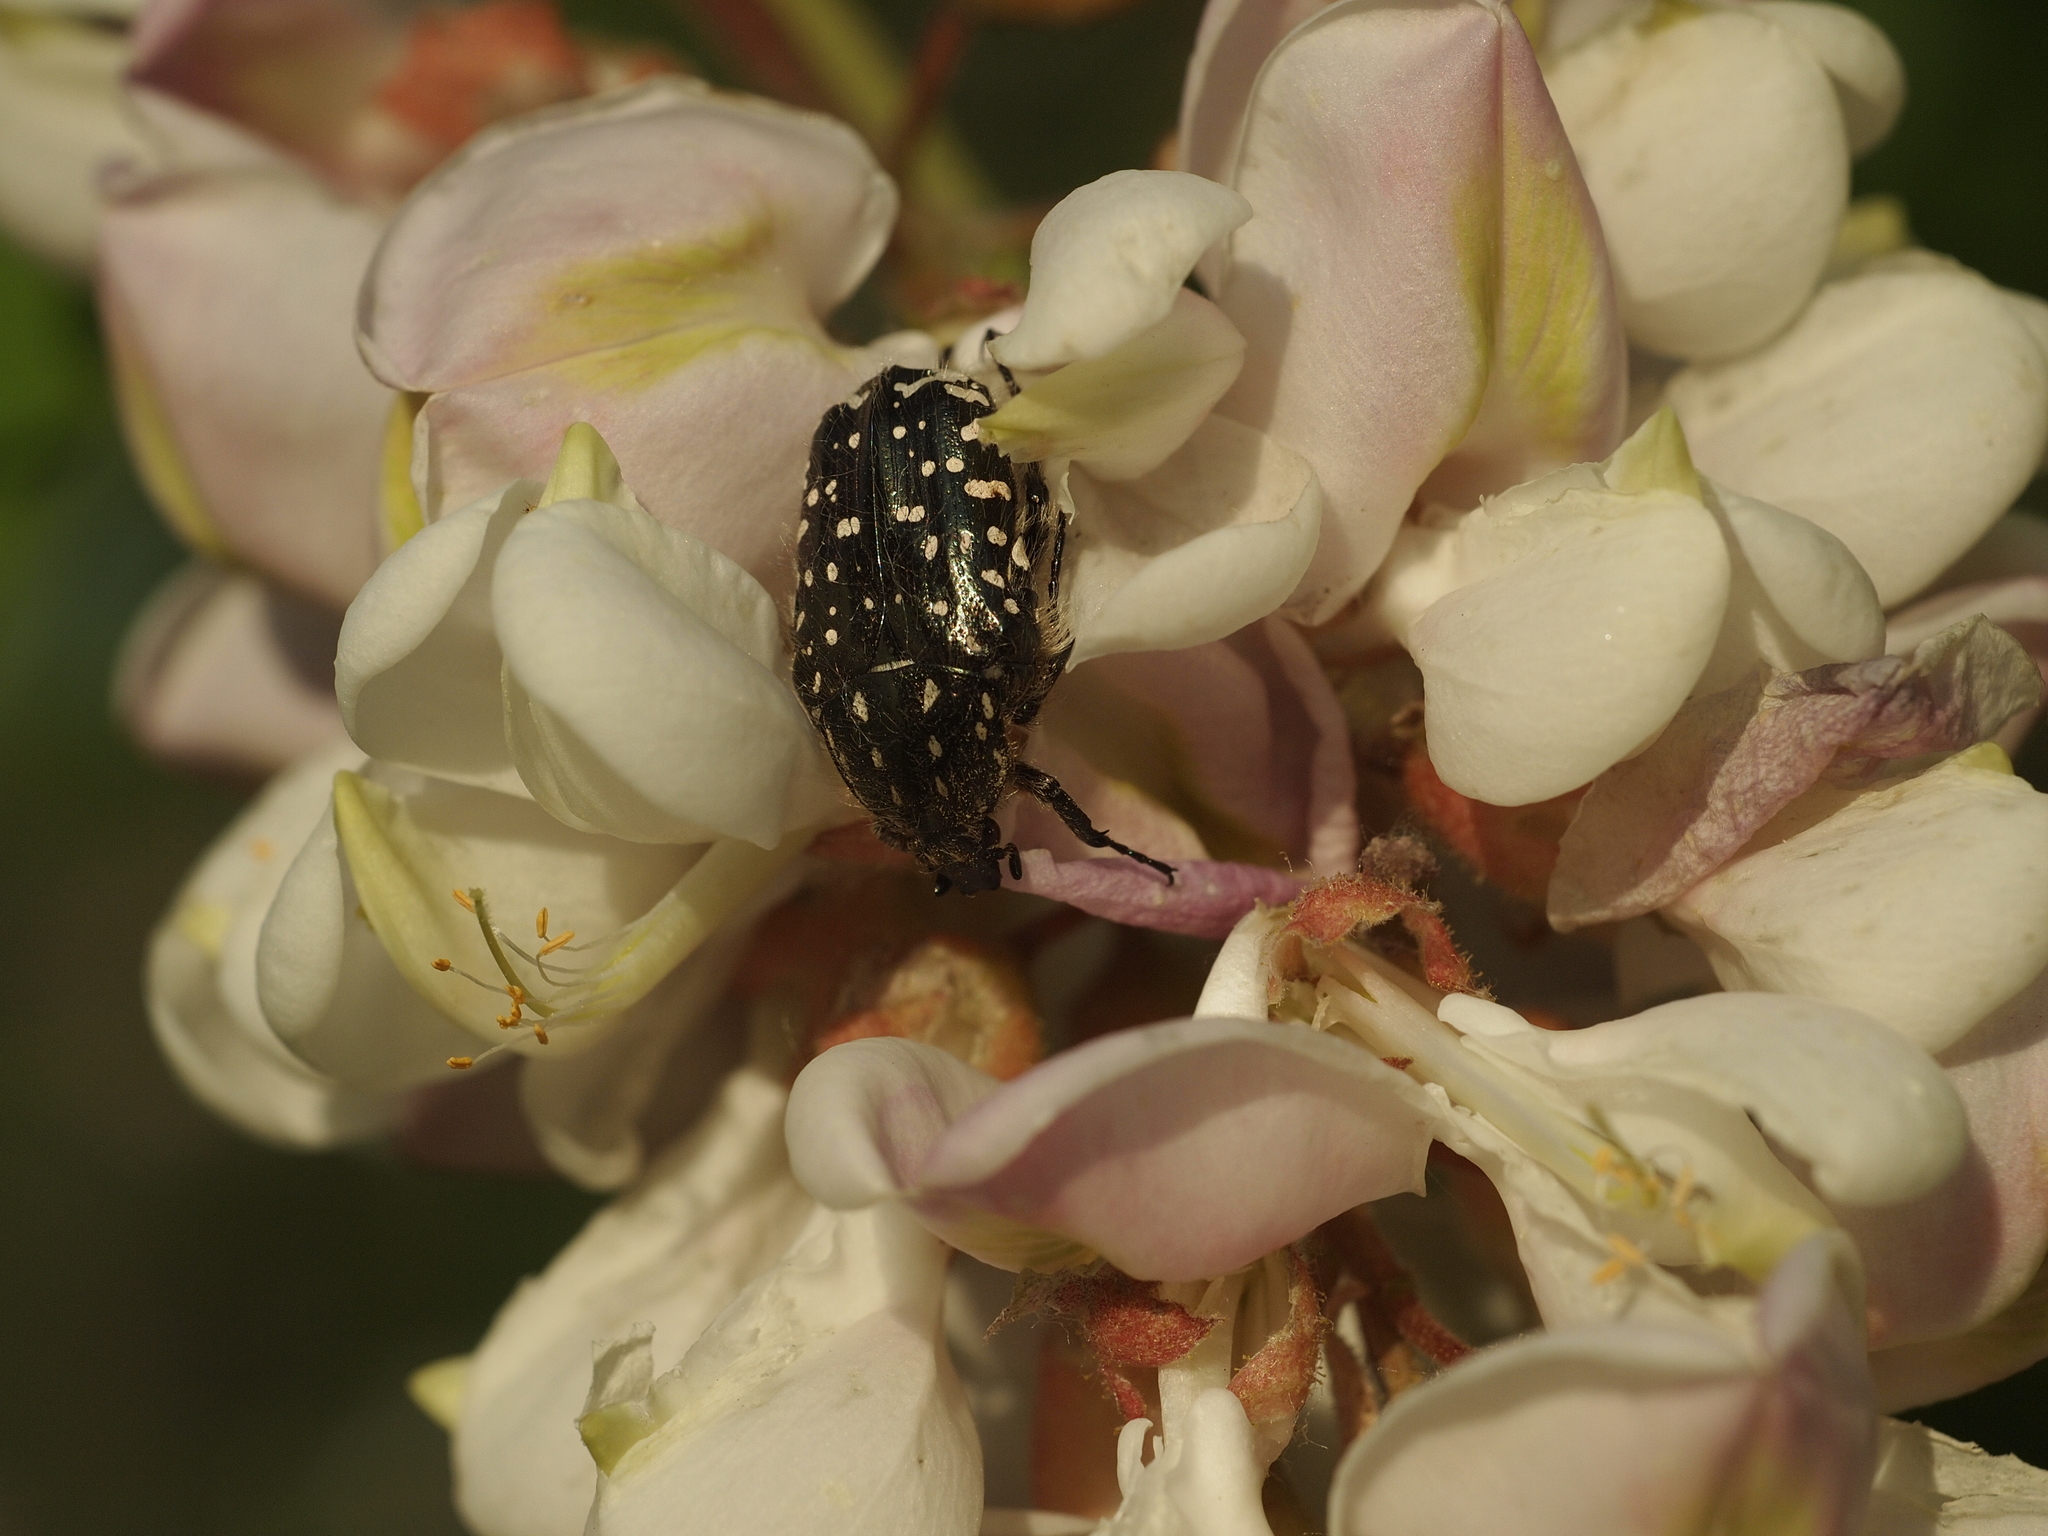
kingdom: Animalia
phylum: Arthropoda
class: Insecta
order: Coleoptera
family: Scarabaeidae
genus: Oxythyrea
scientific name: Oxythyrea funesta
